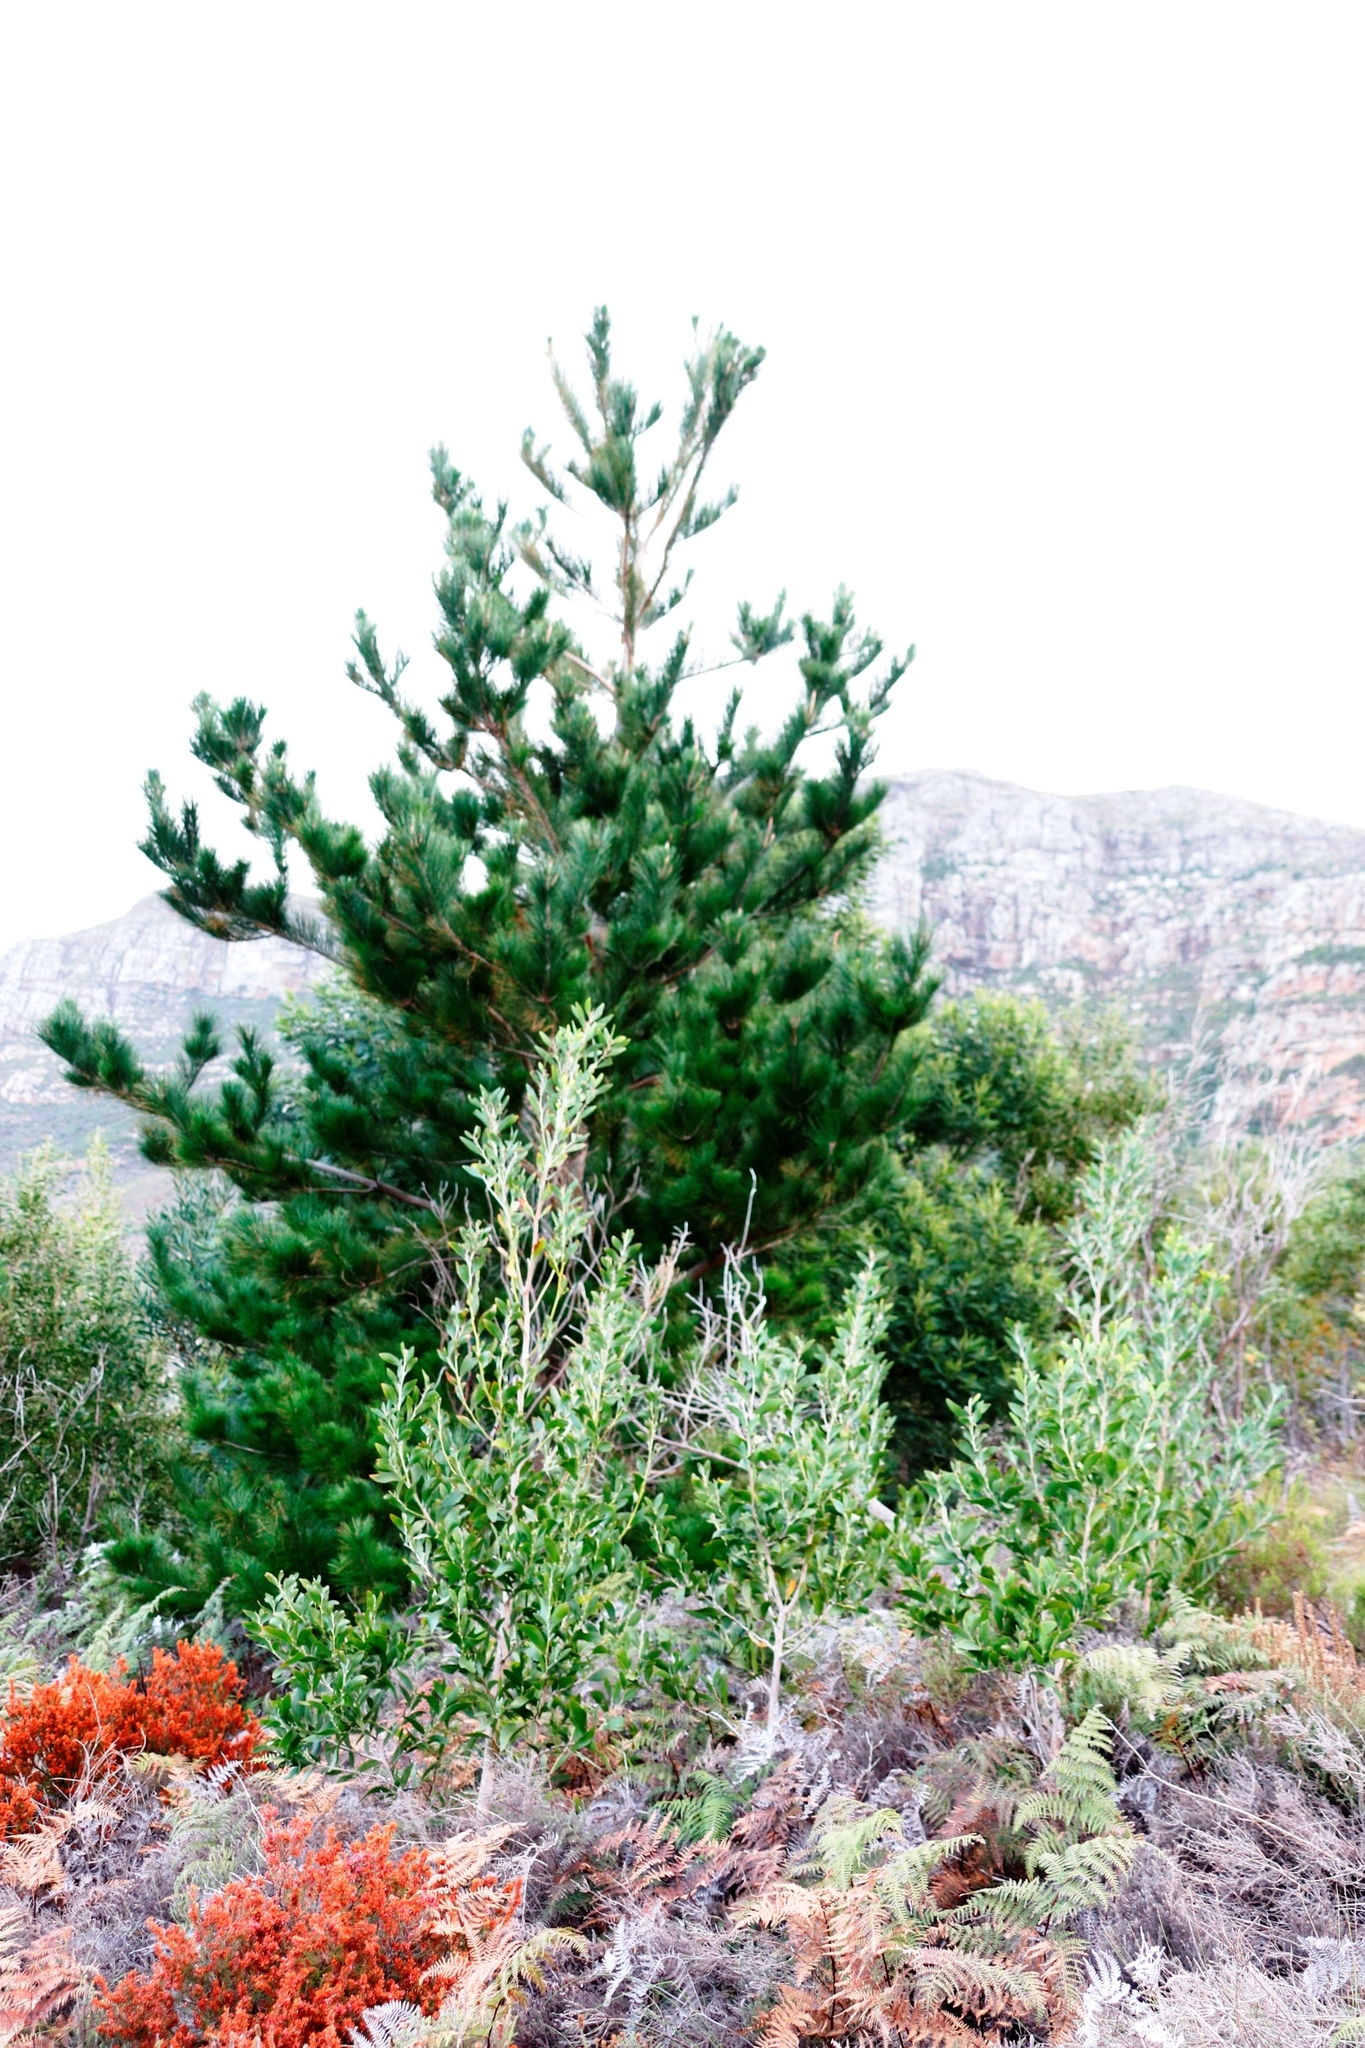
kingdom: Plantae
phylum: Tracheophyta
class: Pinopsida
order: Pinales
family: Pinaceae
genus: Pinus
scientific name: Pinus radiata
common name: Monterey pine
